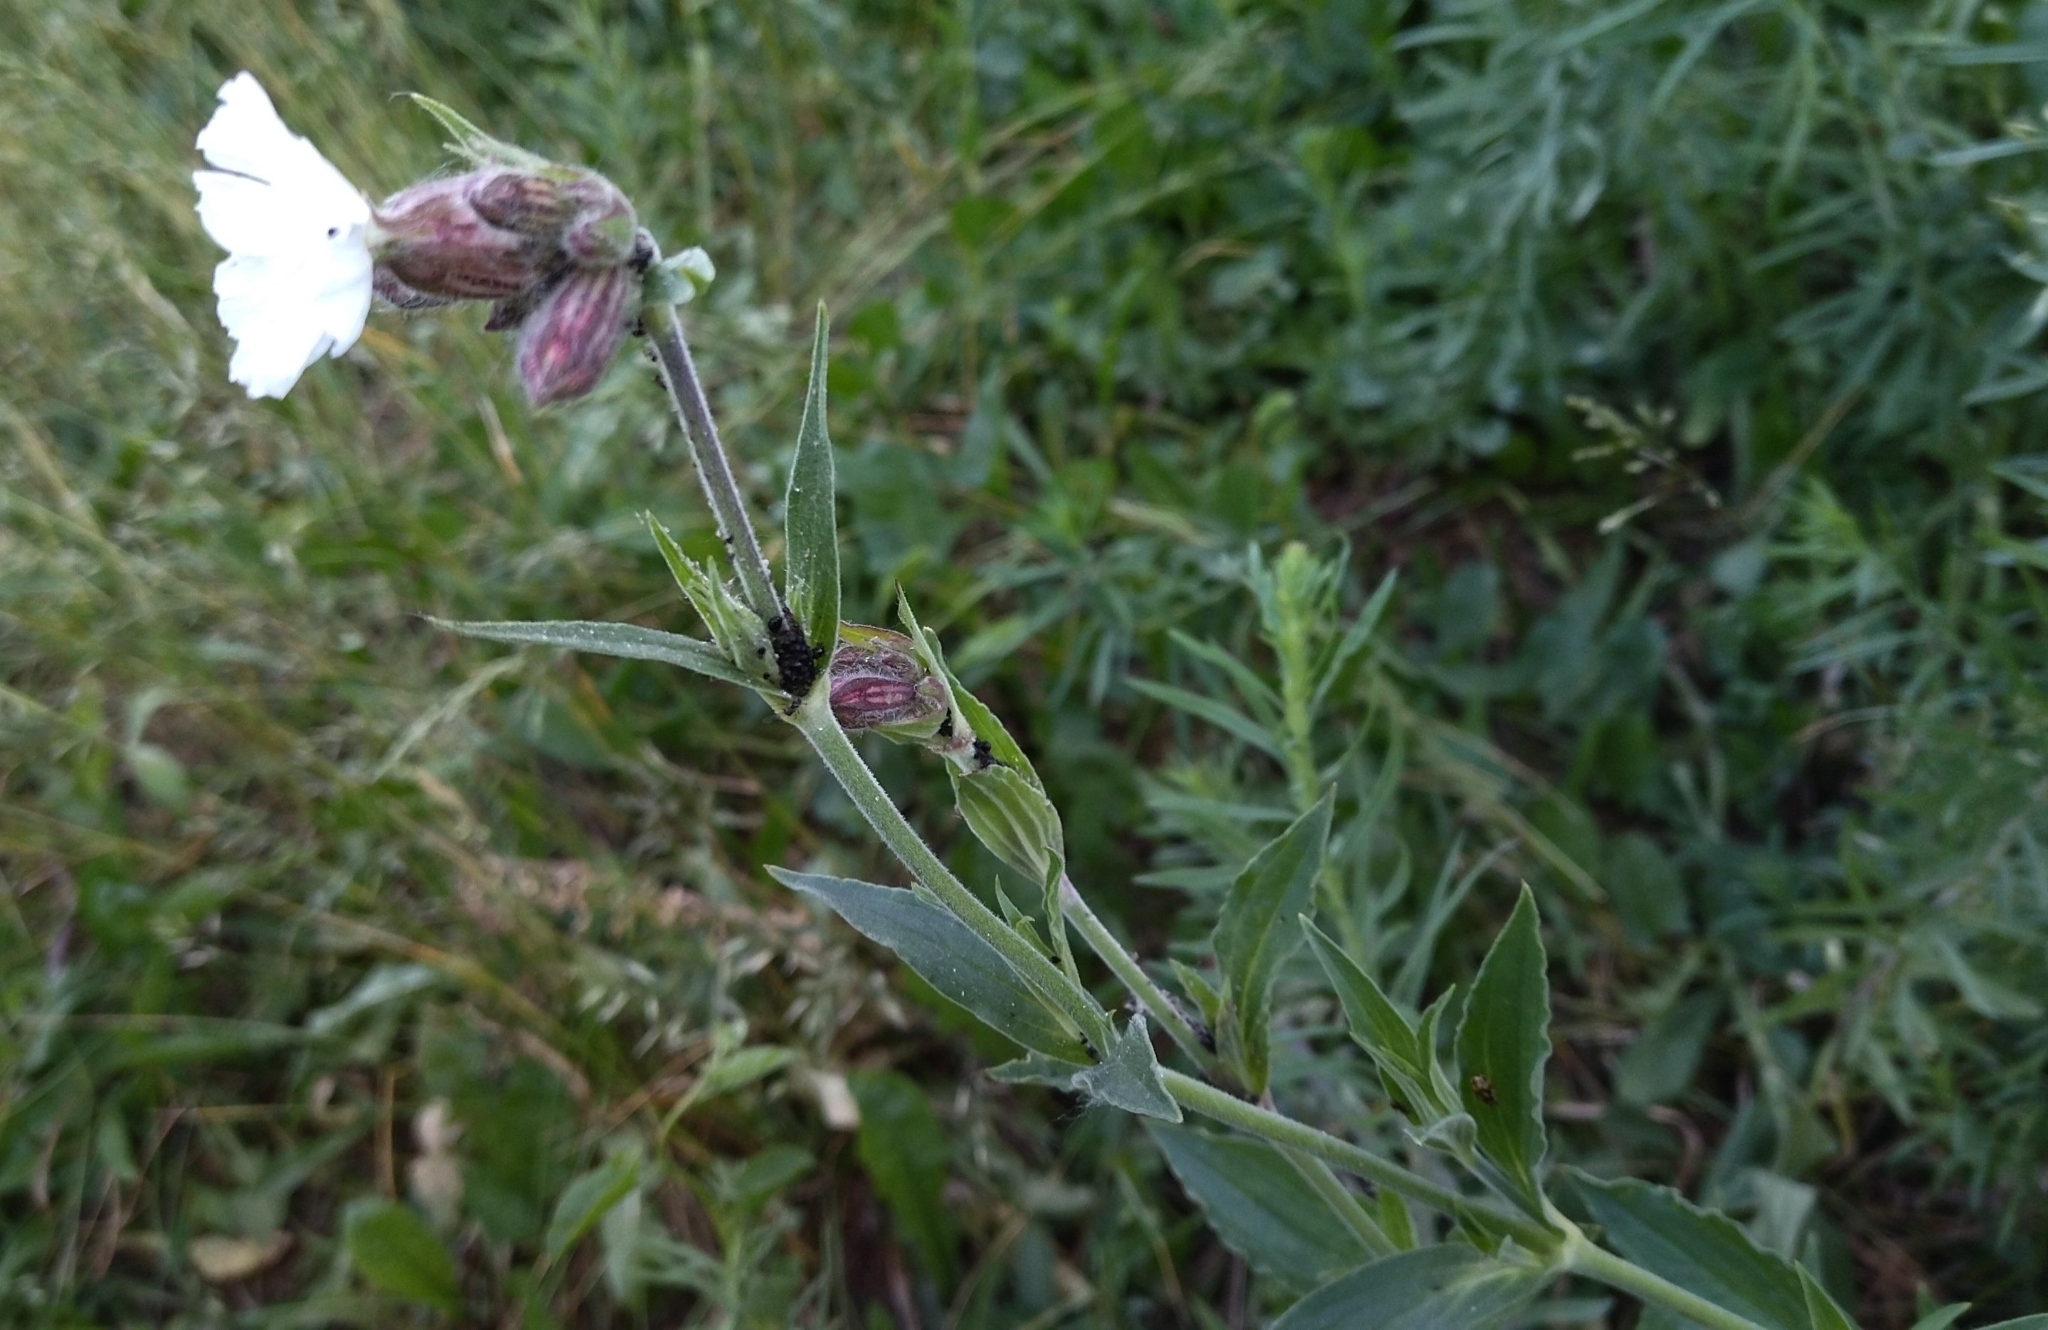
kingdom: Plantae
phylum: Tracheophyta
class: Magnoliopsida
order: Caryophyllales
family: Caryophyllaceae
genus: Silene
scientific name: Silene latifolia
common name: White campion
